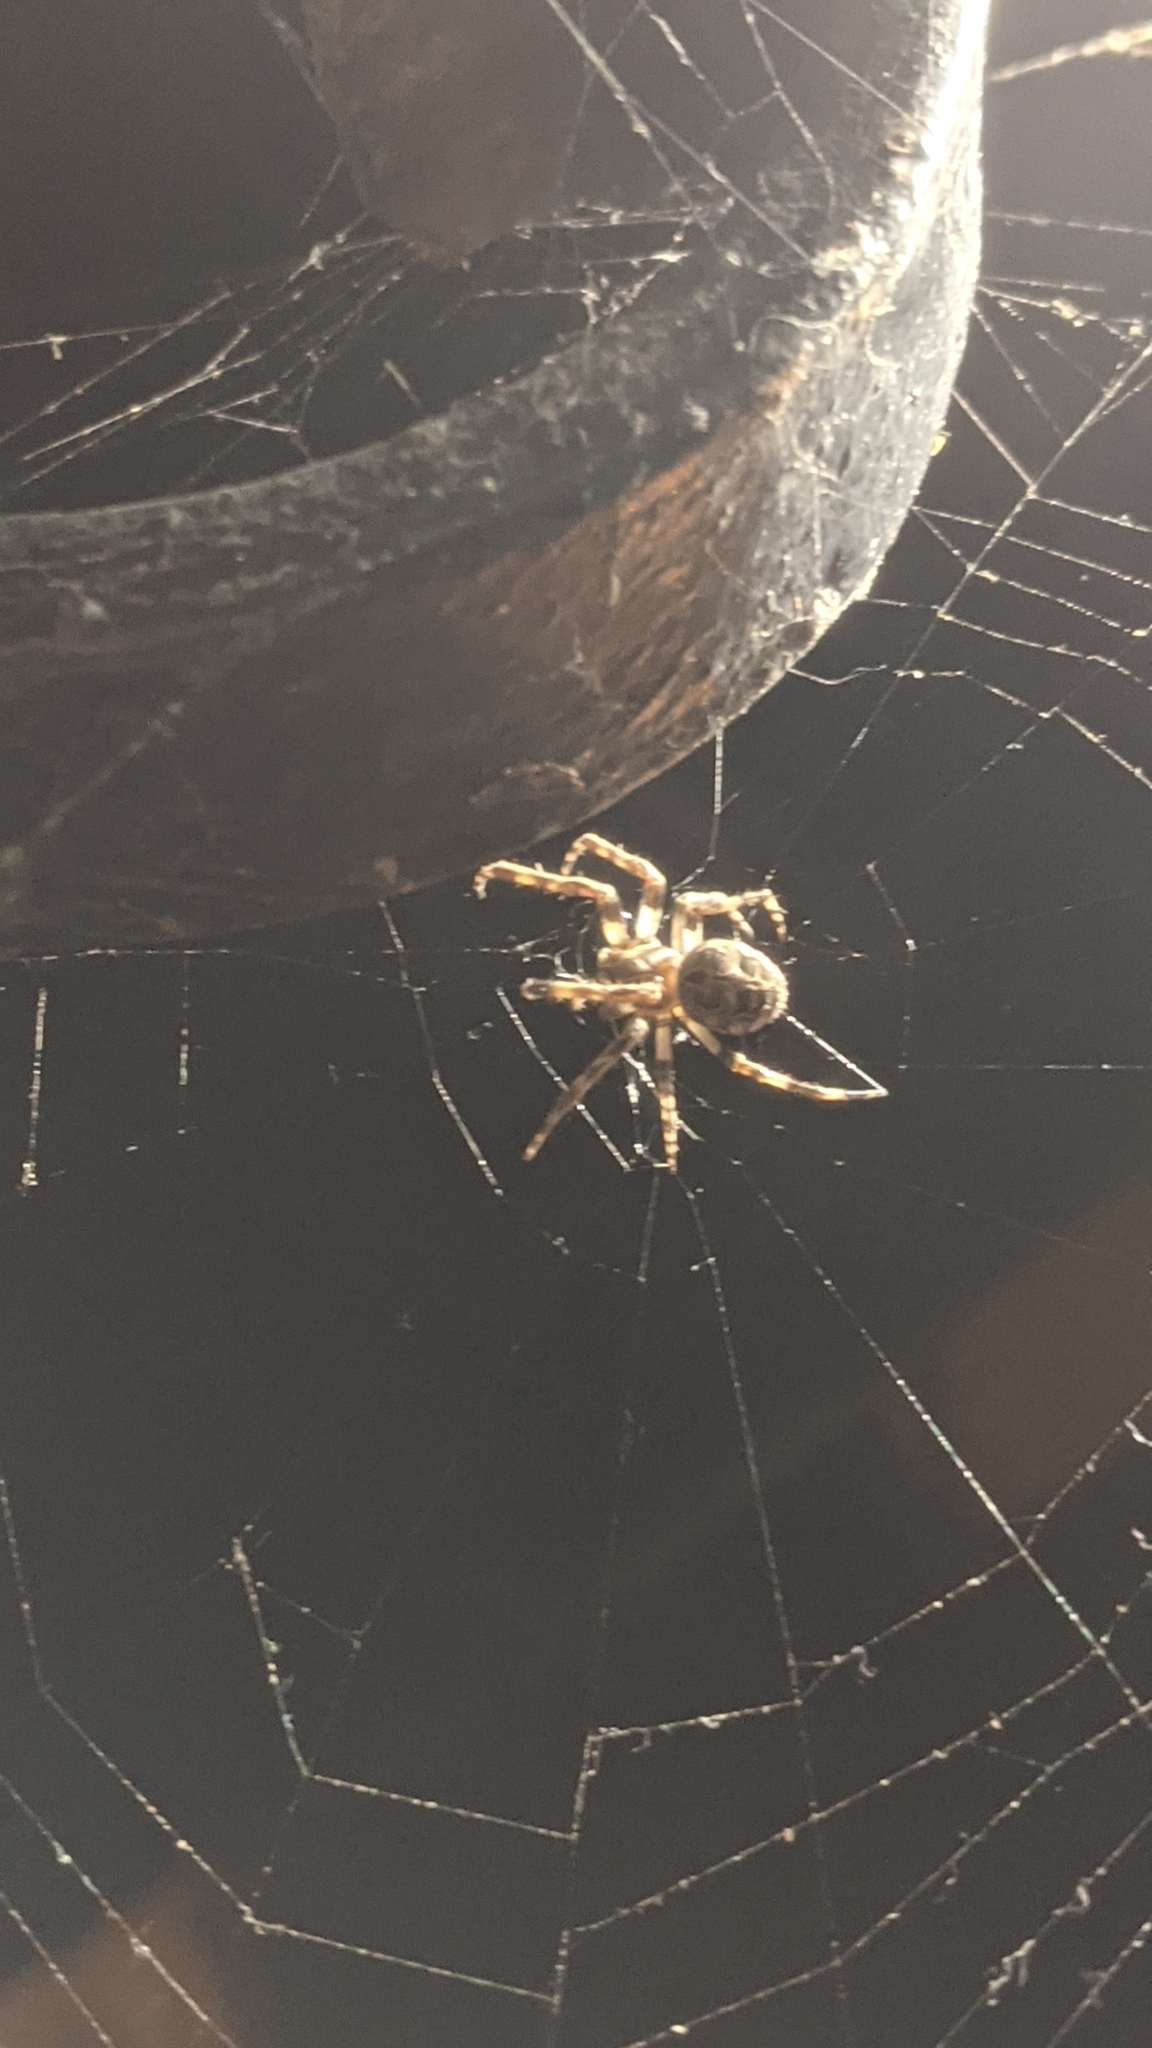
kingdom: Animalia
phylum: Arthropoda
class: Arachnida
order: Araneae
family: Araneidae
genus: Larinioides
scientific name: Larinioides sclopetarius
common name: Bridge orbweaver
